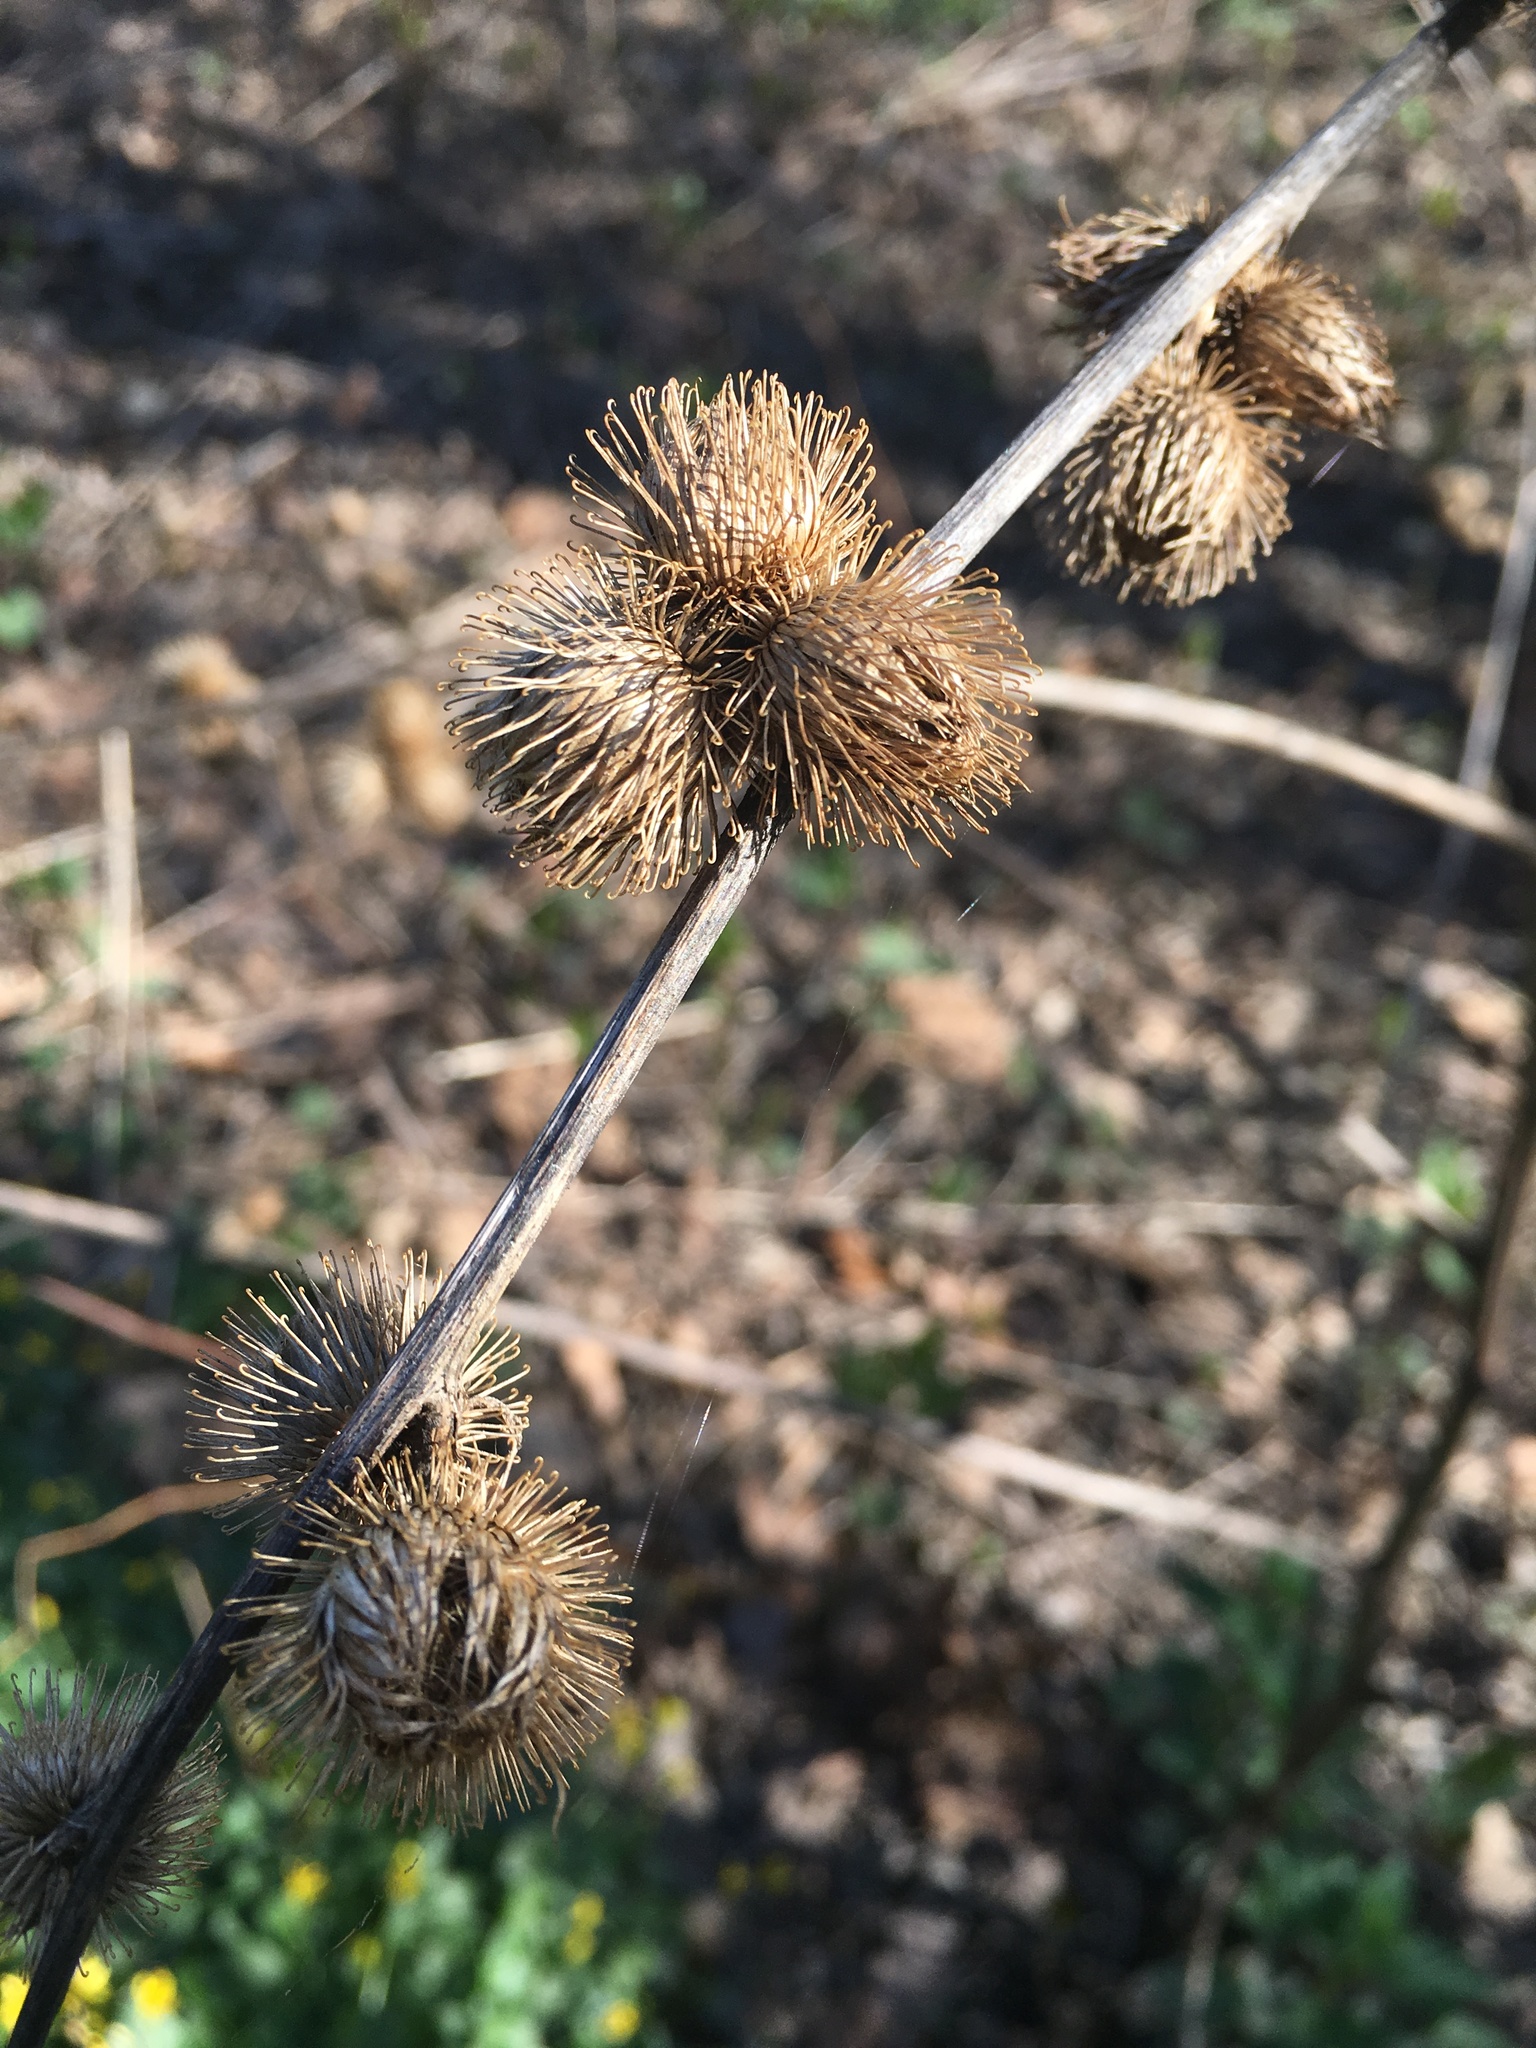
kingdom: Plantae
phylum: Tracheophyta
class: Magnoliopsida
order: Asterales
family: Asteraceae
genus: Arctium
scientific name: Arctium minus
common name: Lesser burdock
